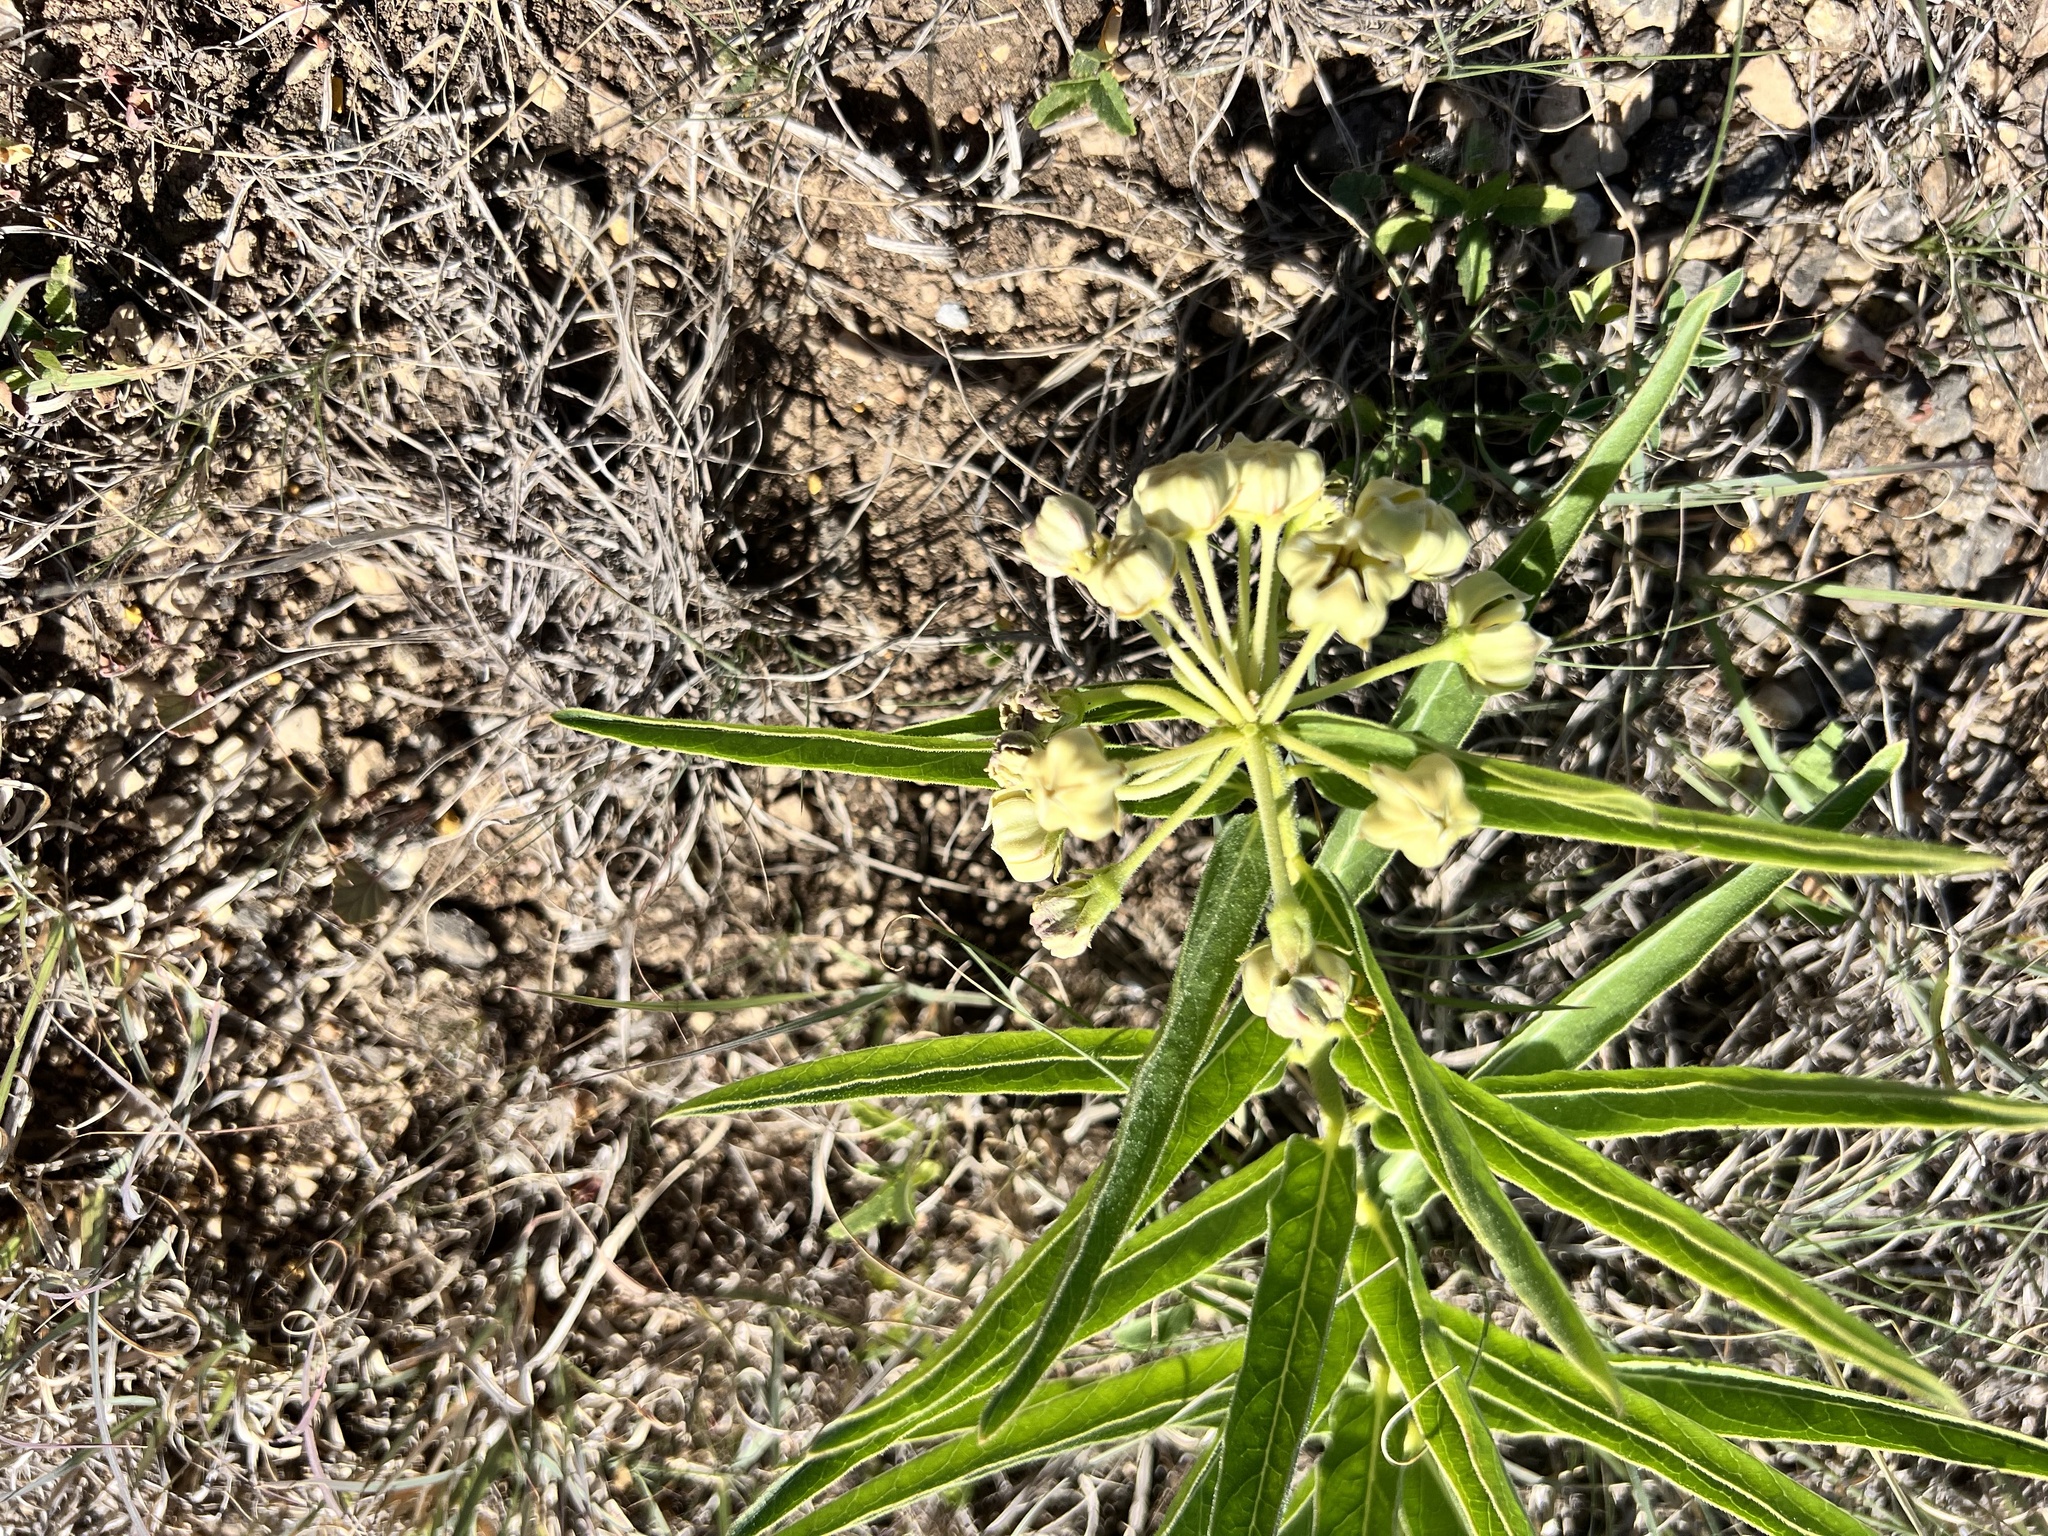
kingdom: Plantae
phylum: Tracheophyta
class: Magnoliopsida
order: Gentianales
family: Apocynaceae
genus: Asclepias
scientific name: Asclepias asperula
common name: Antelope horns
